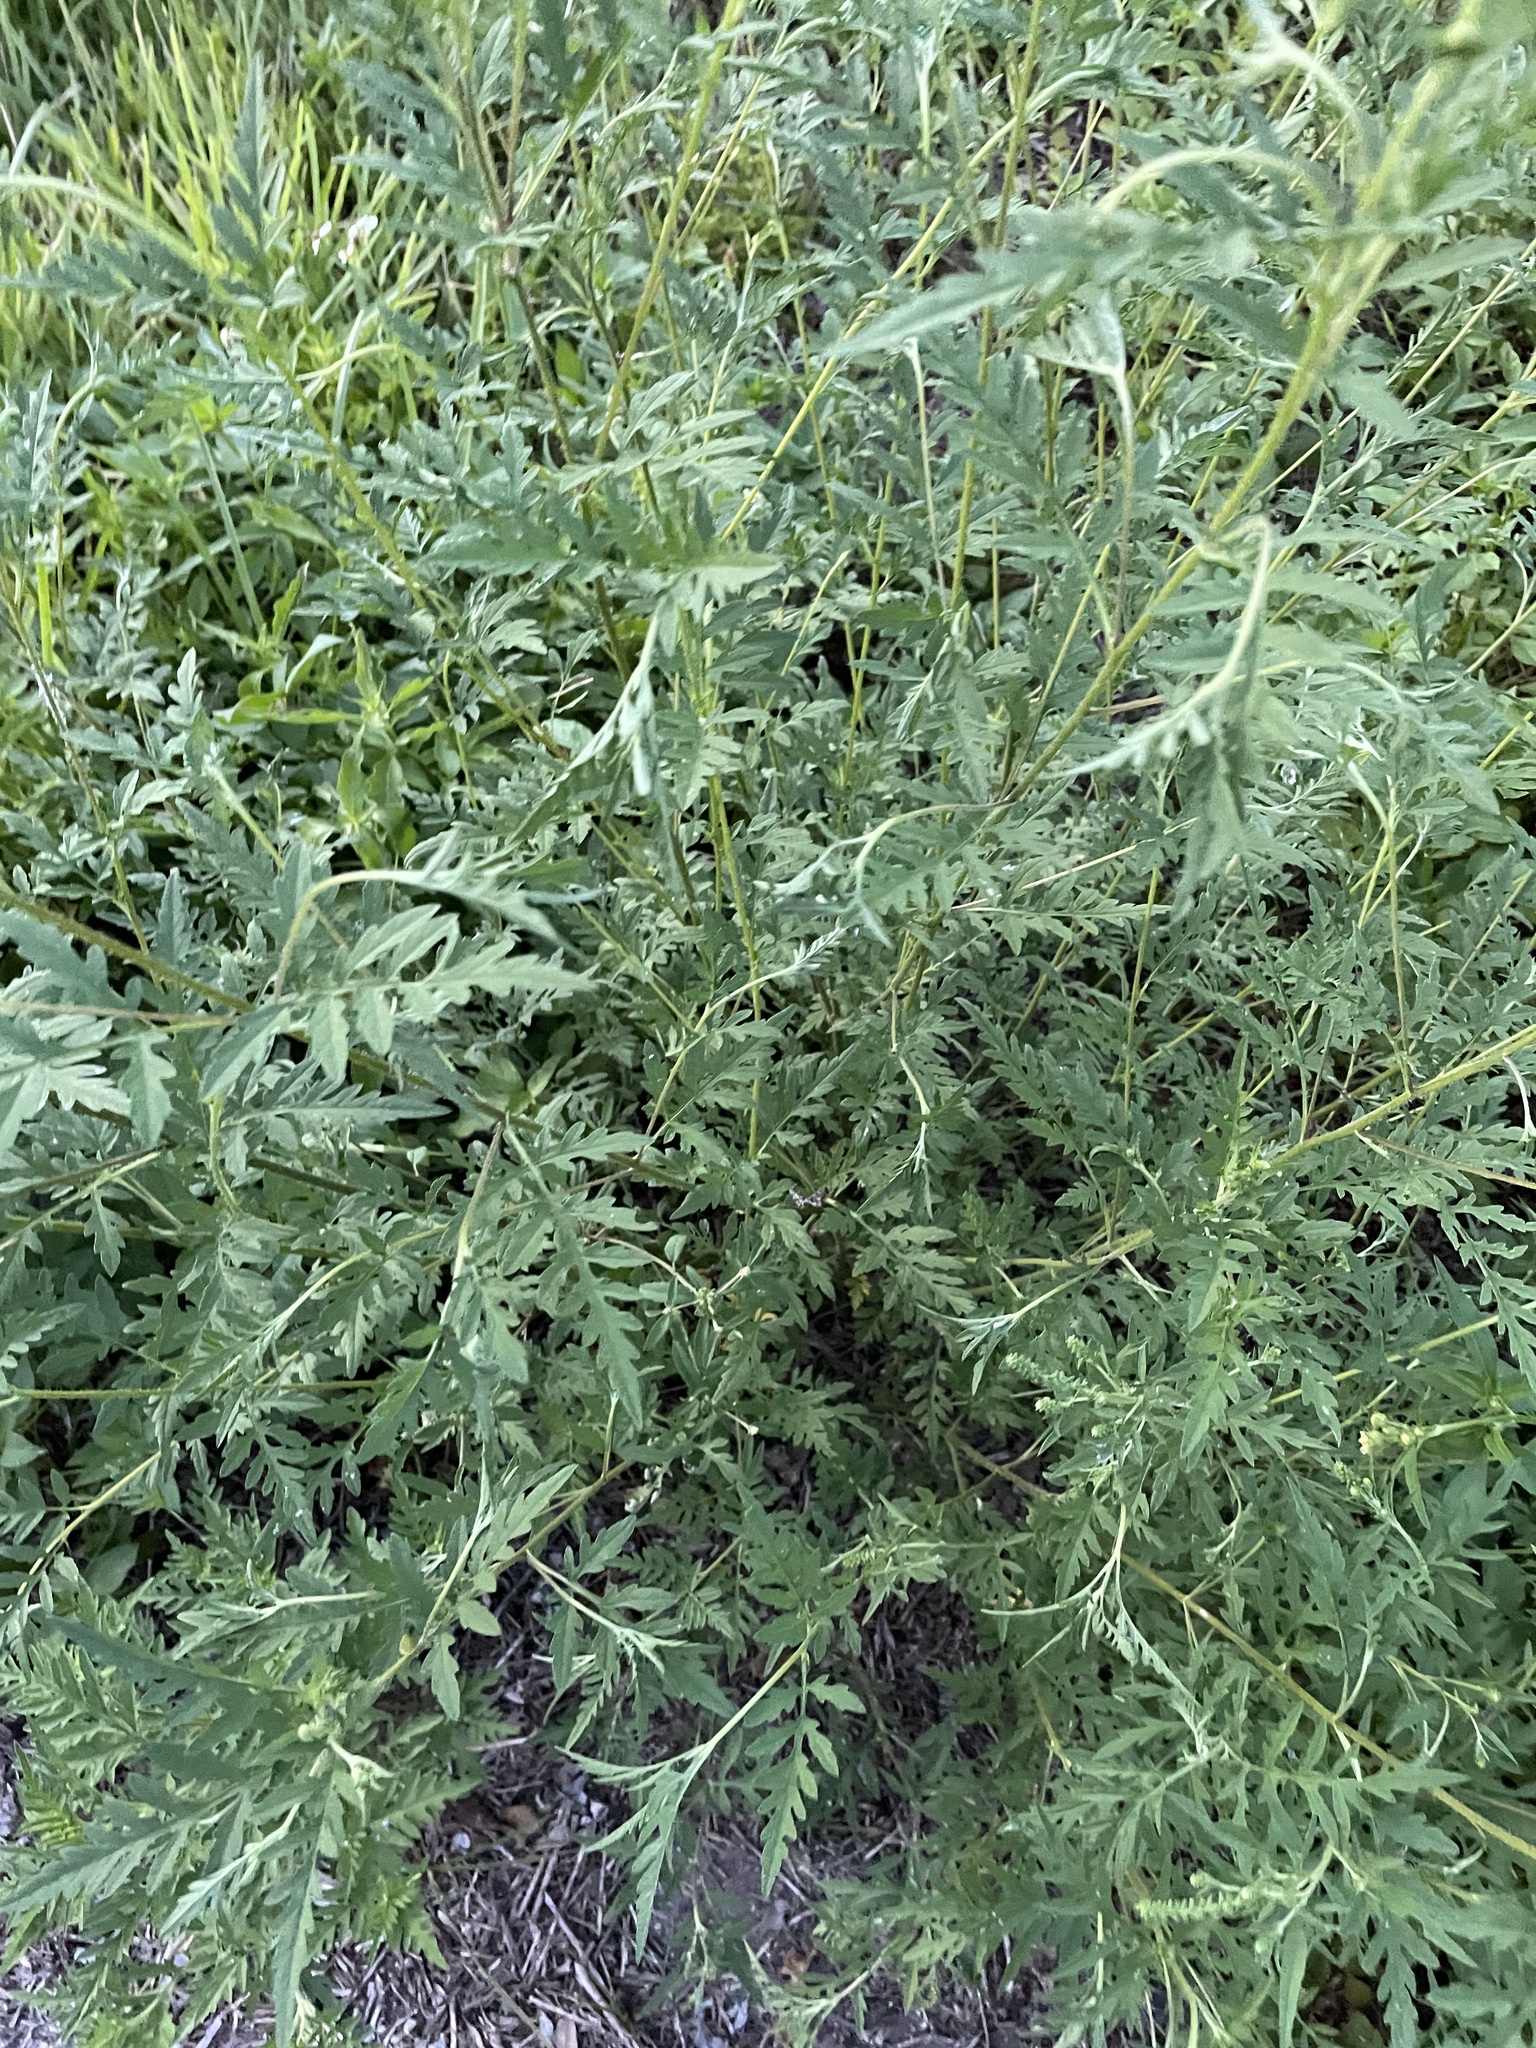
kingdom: Plantae
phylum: Tracheophyta
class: Magnoliopsida
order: Asterales
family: Asteraceae
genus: Ambrosia
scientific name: Ambrosia artemisiifolia
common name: Annual ragweed
